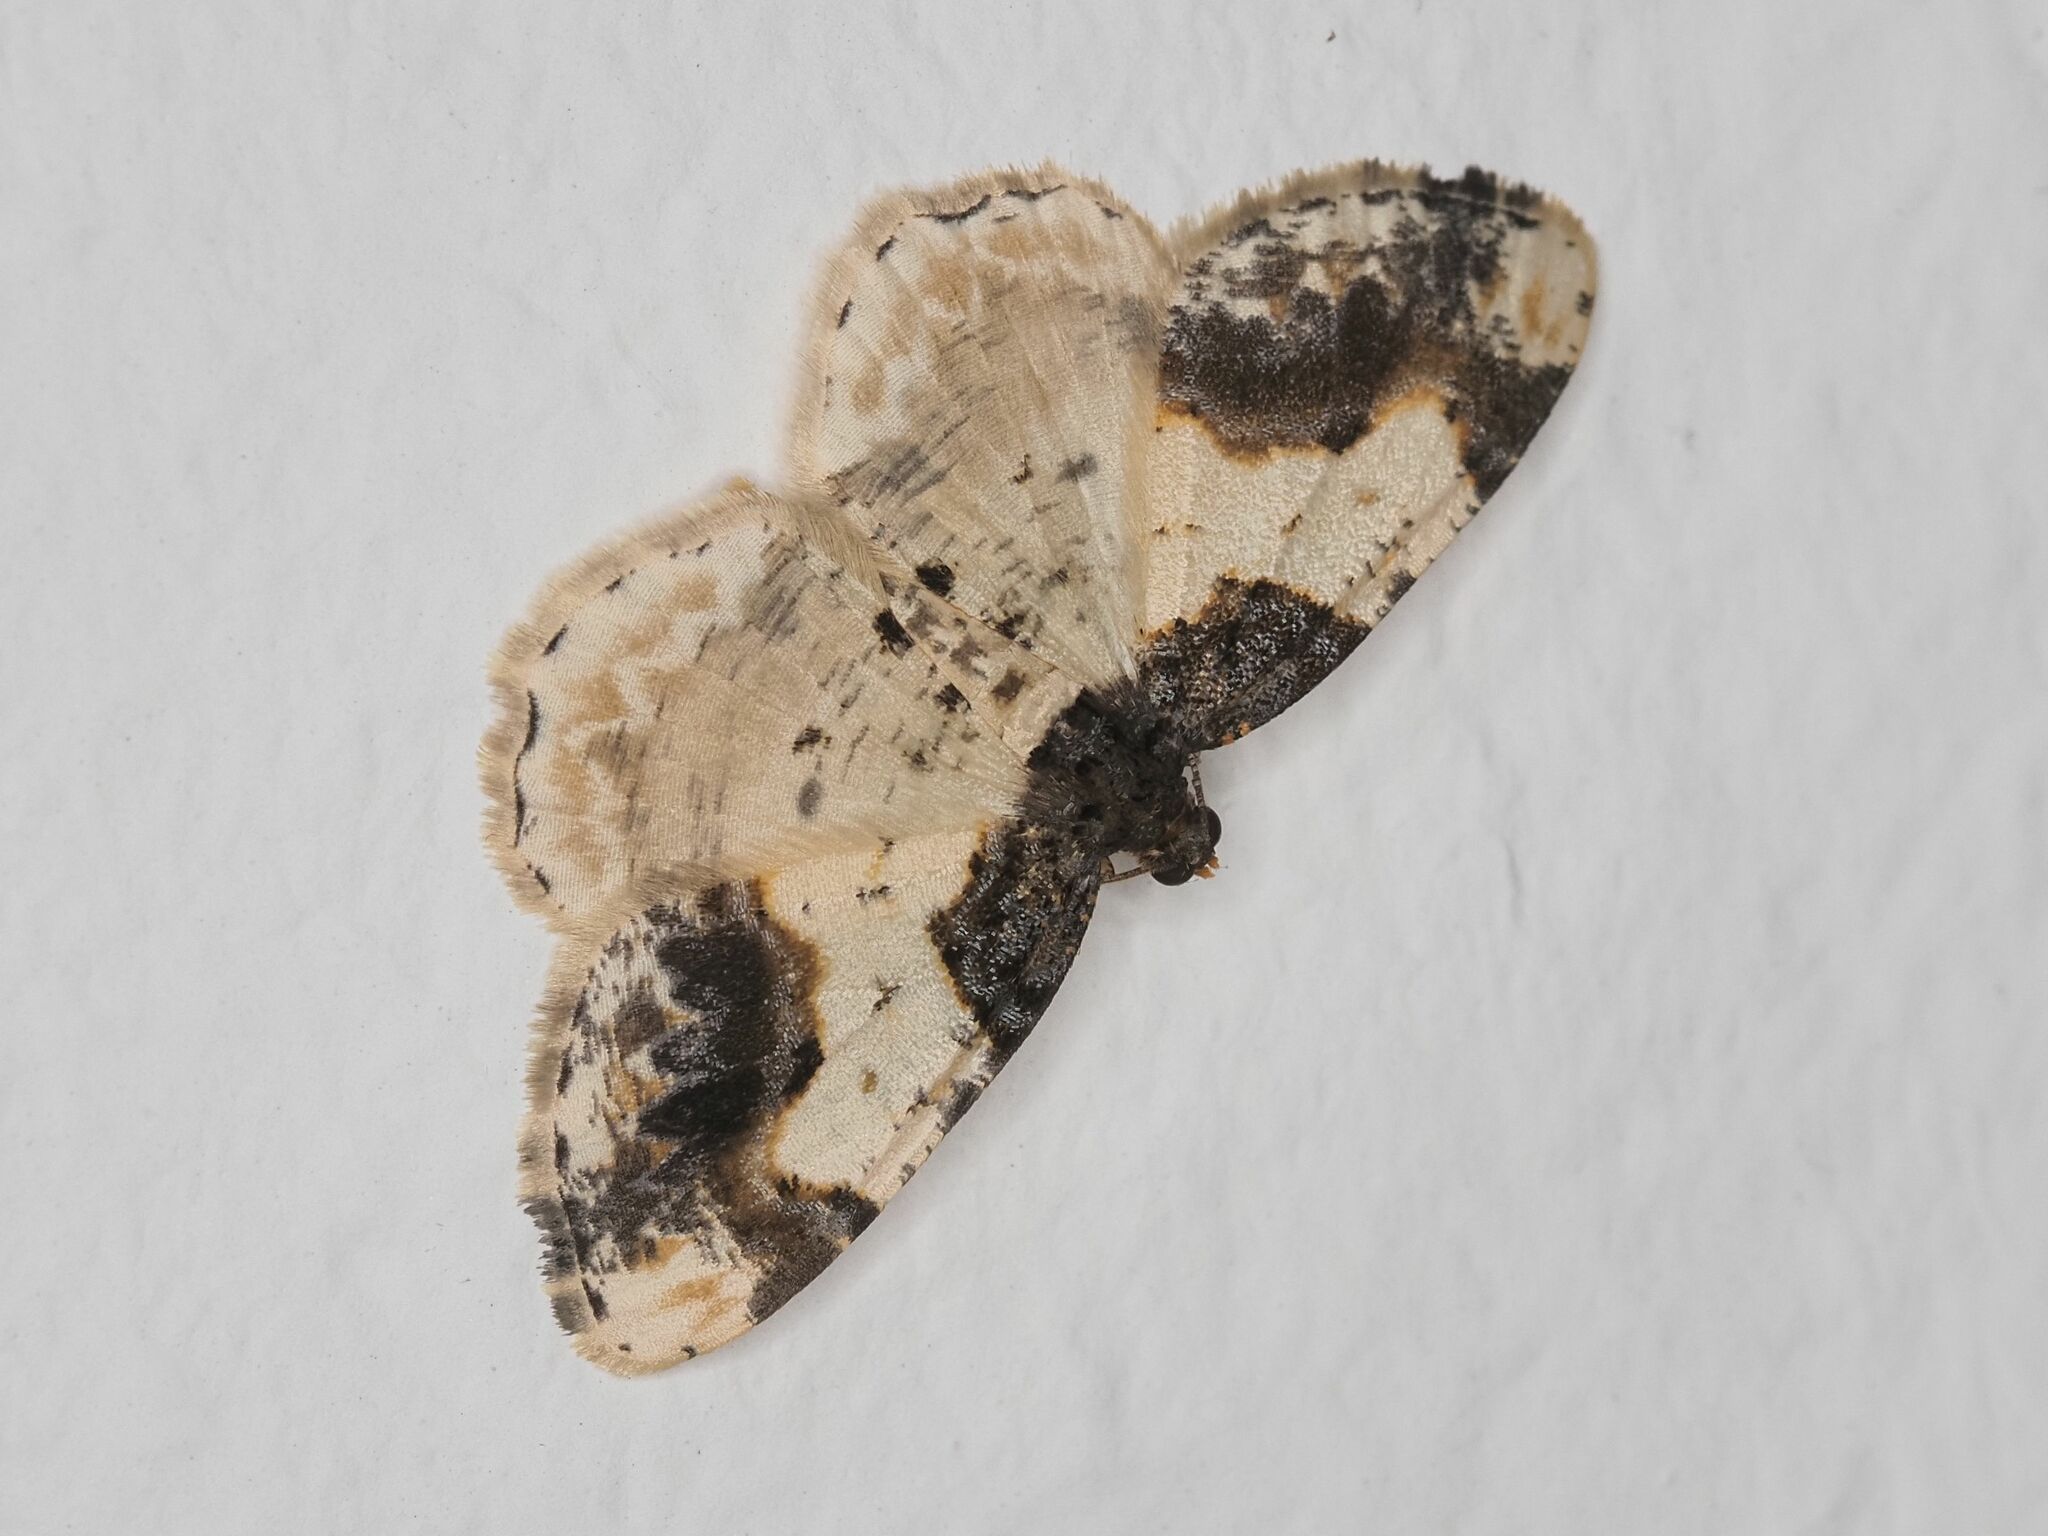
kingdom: Animalia
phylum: Arthropoda
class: Insecta
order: Lepidoptera
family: Geometridae
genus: Ligdia
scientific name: Ligdia adustata
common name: Scorched carpet
